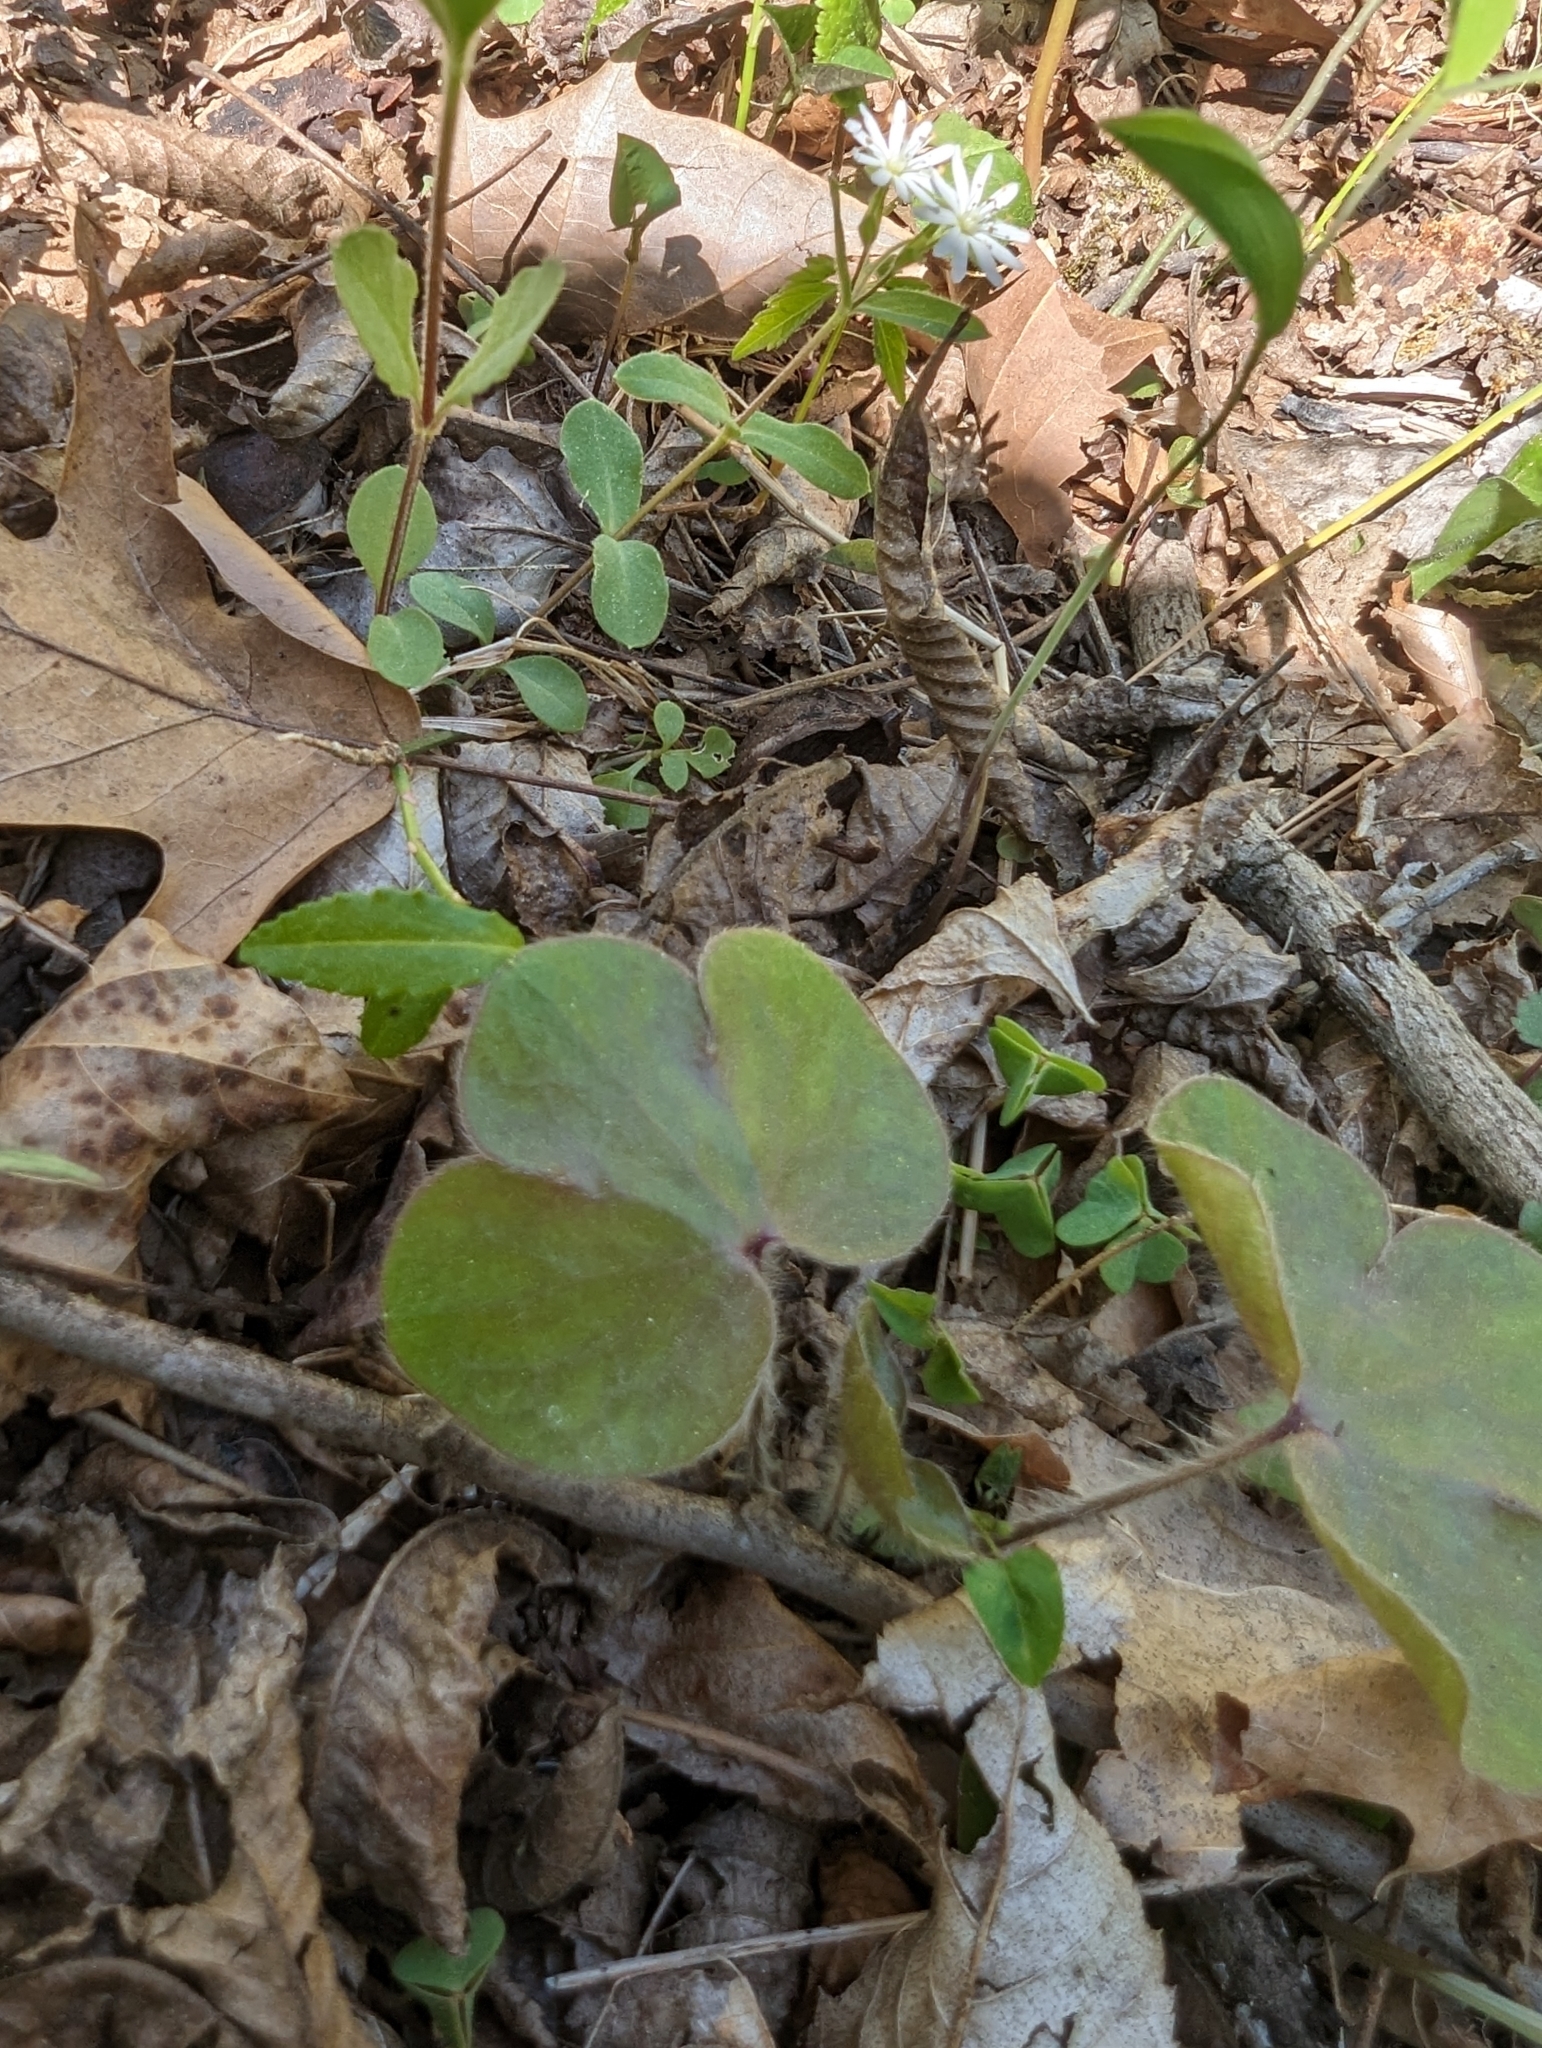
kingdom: Plantae
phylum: Tracheophyta
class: Magnoliopsida
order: Ranunculales
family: Ranunculaceae
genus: Hepatica
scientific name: Hepatica americana
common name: American hepatica
